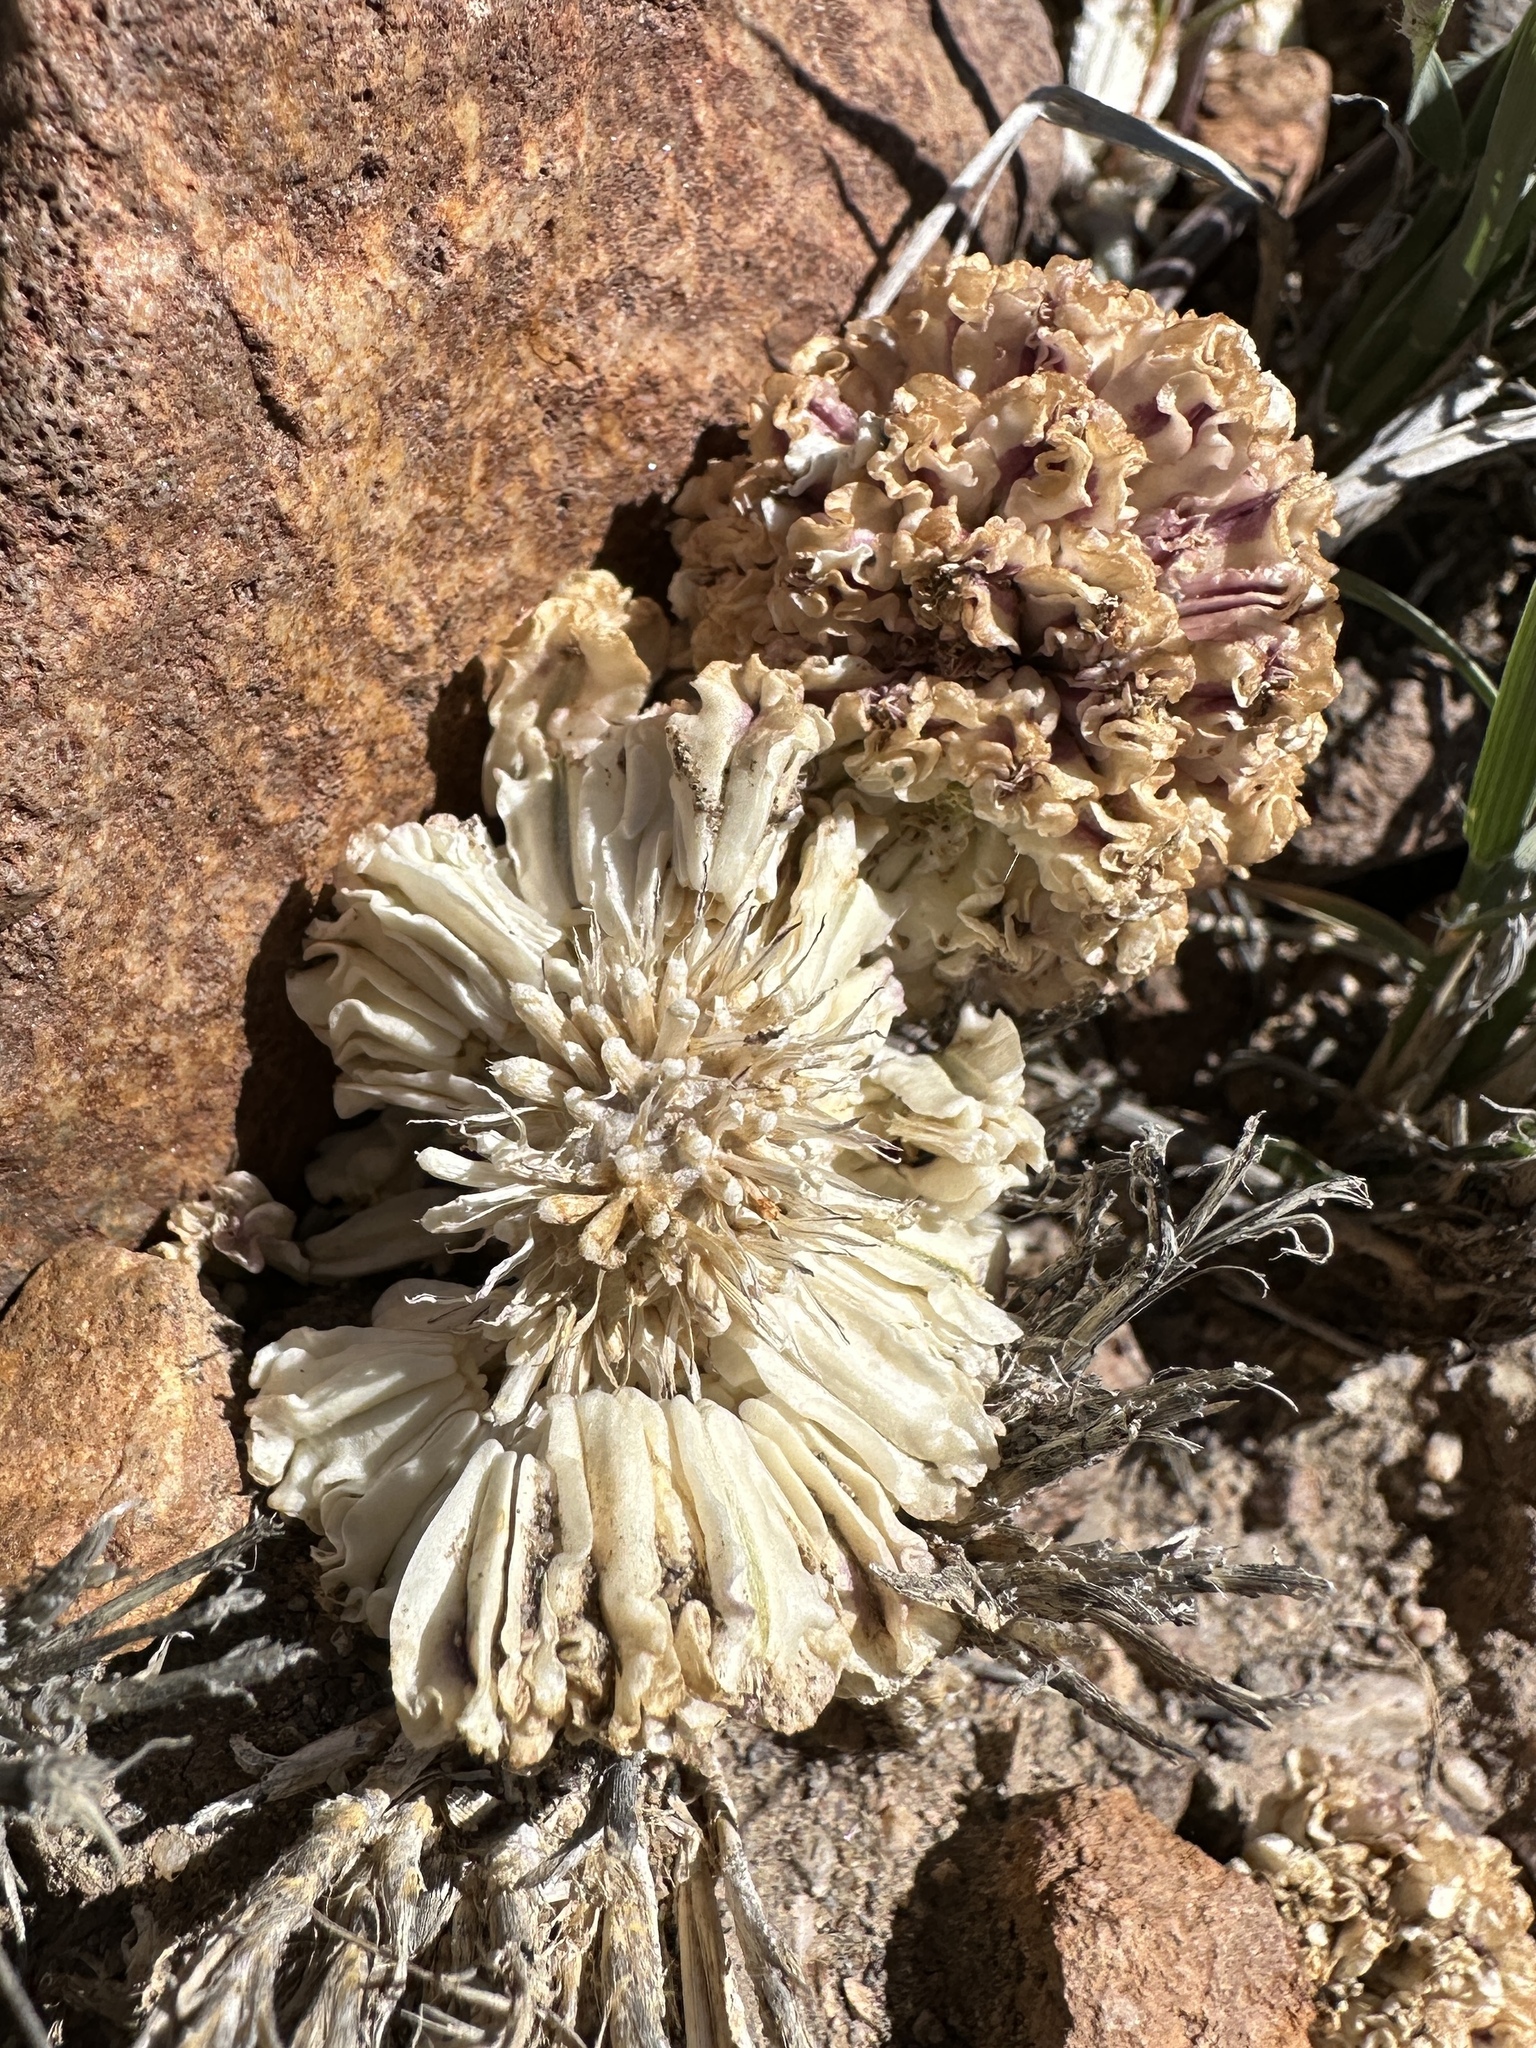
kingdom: Plantae
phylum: Tracheophyta
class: Magnoliopsida
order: Apiales
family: Apiaceae
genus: Cymopterus
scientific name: Cymopterus globosus
